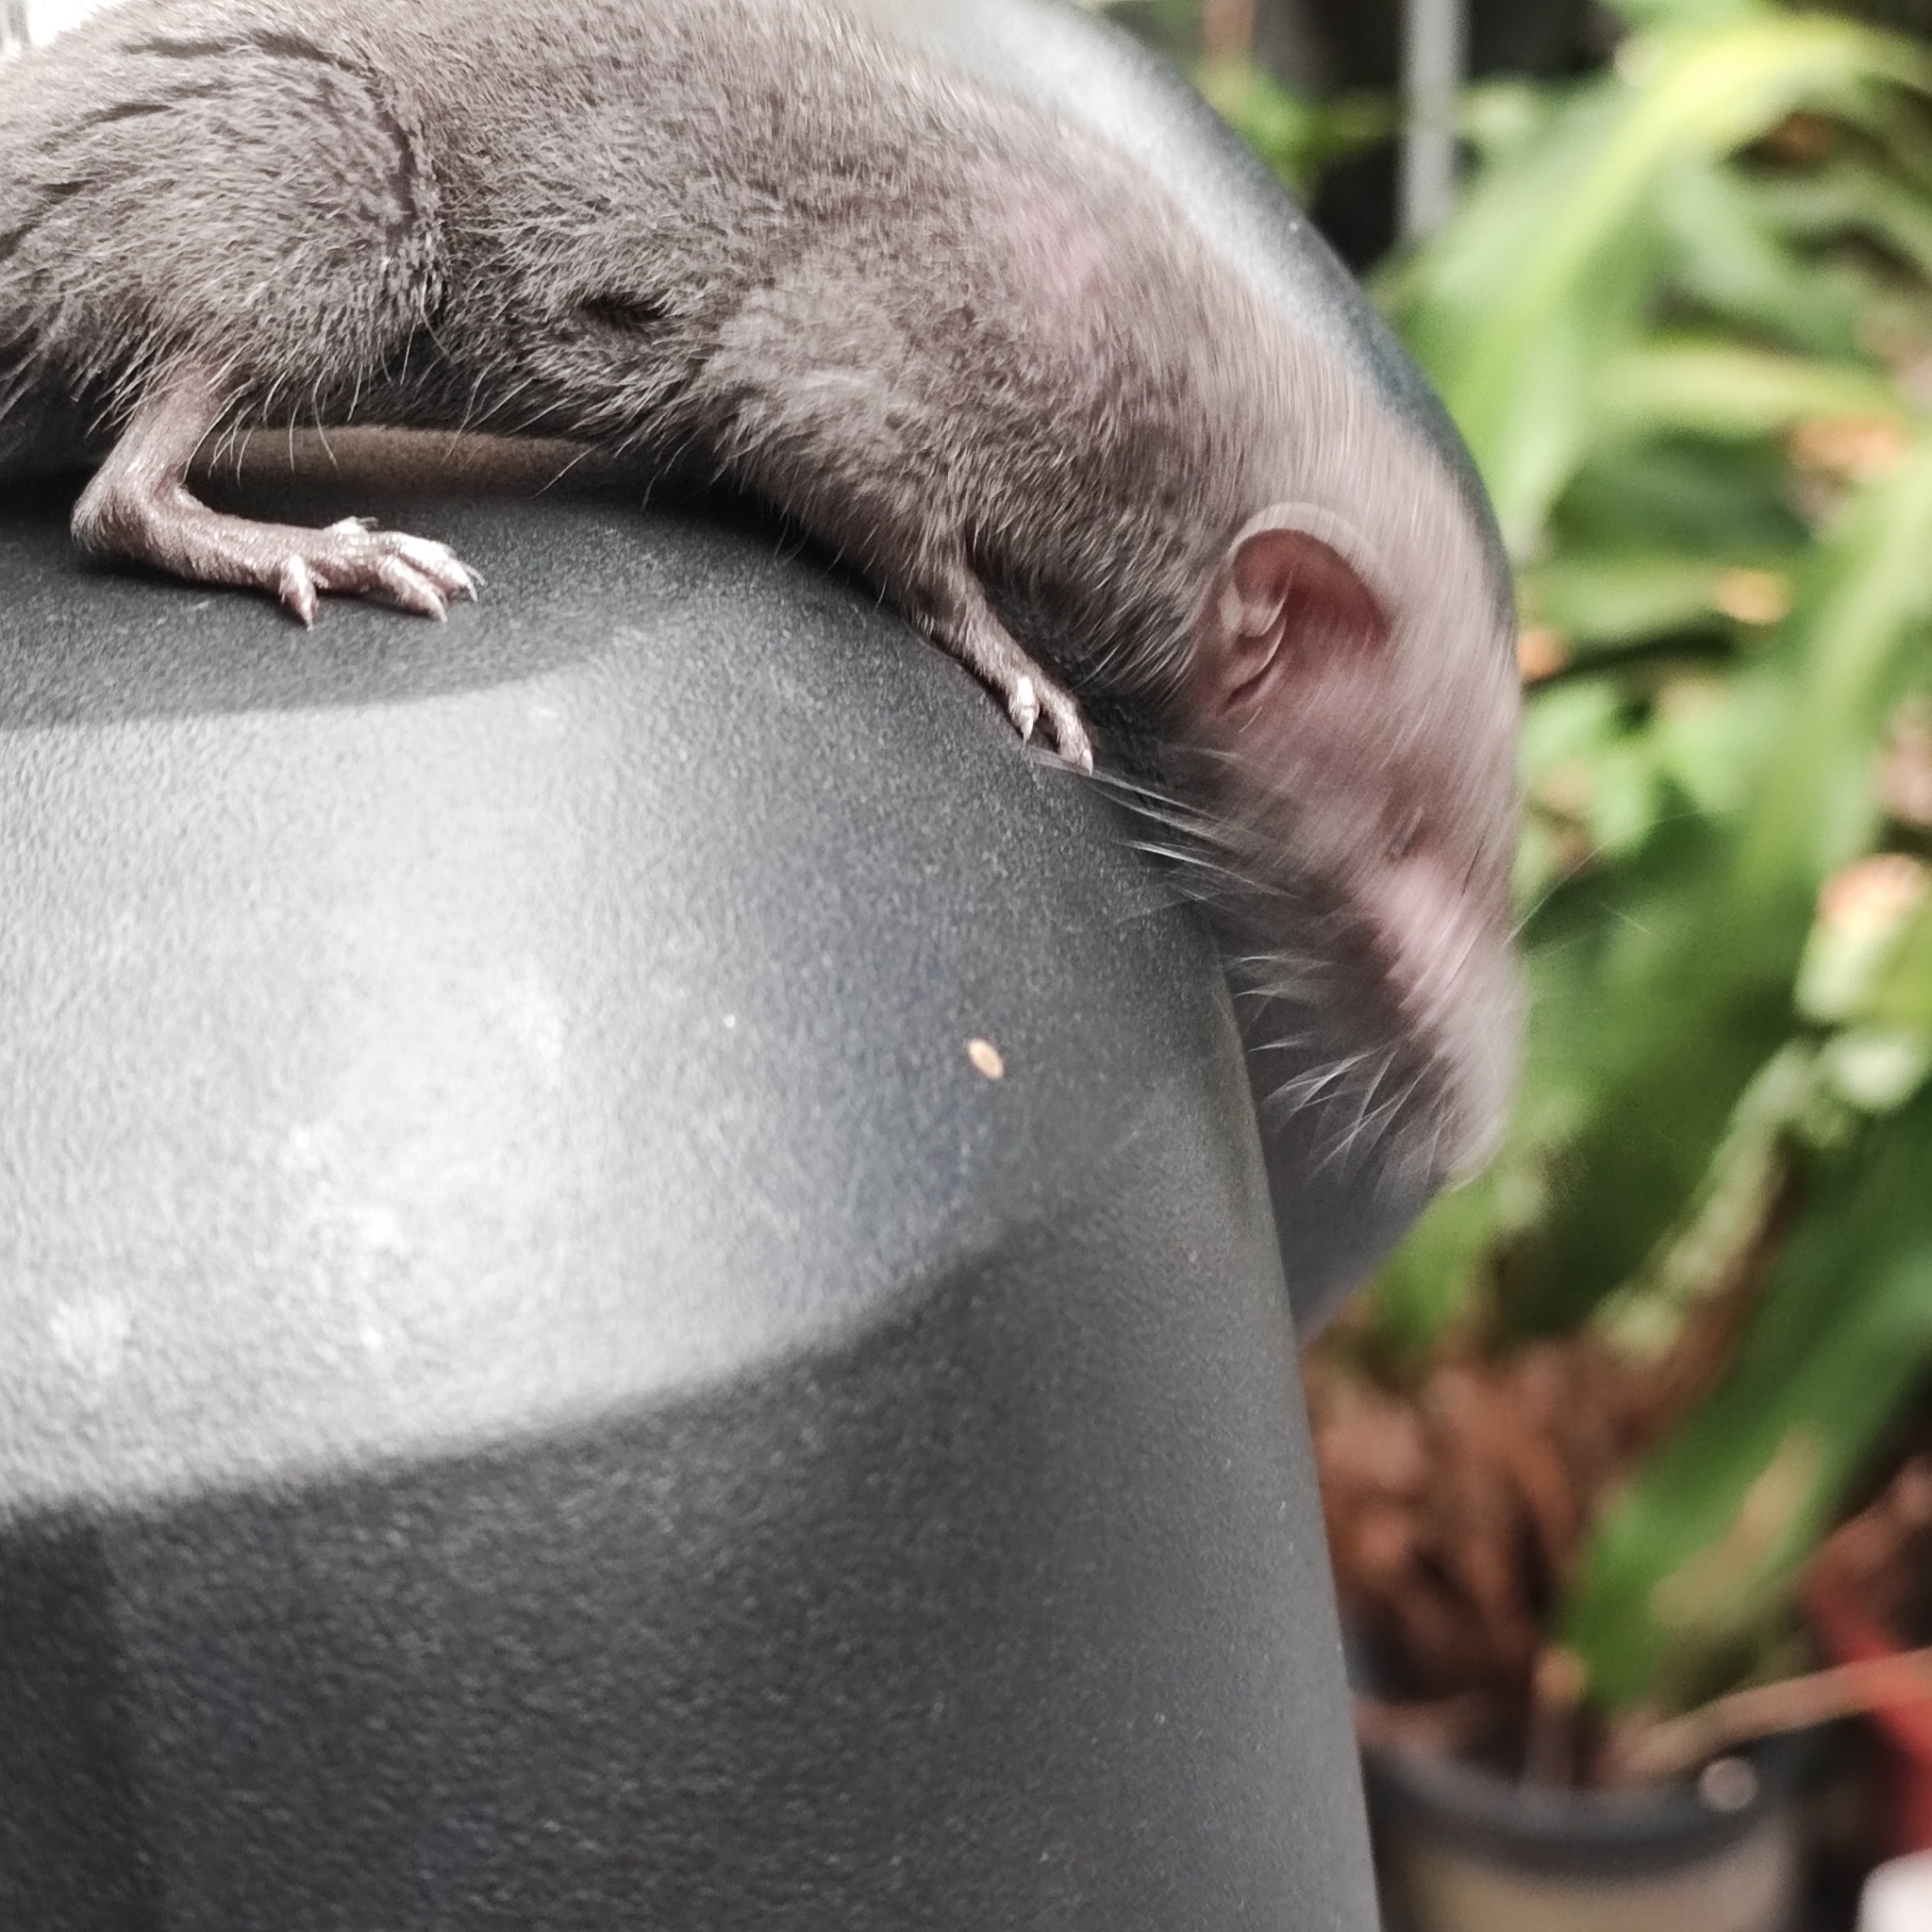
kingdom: Animalia
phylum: Chordata
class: Mammalia
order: Soricomorpha
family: Soricidae
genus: Suncus
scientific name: Suncus murinus
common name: Asian house shrew
